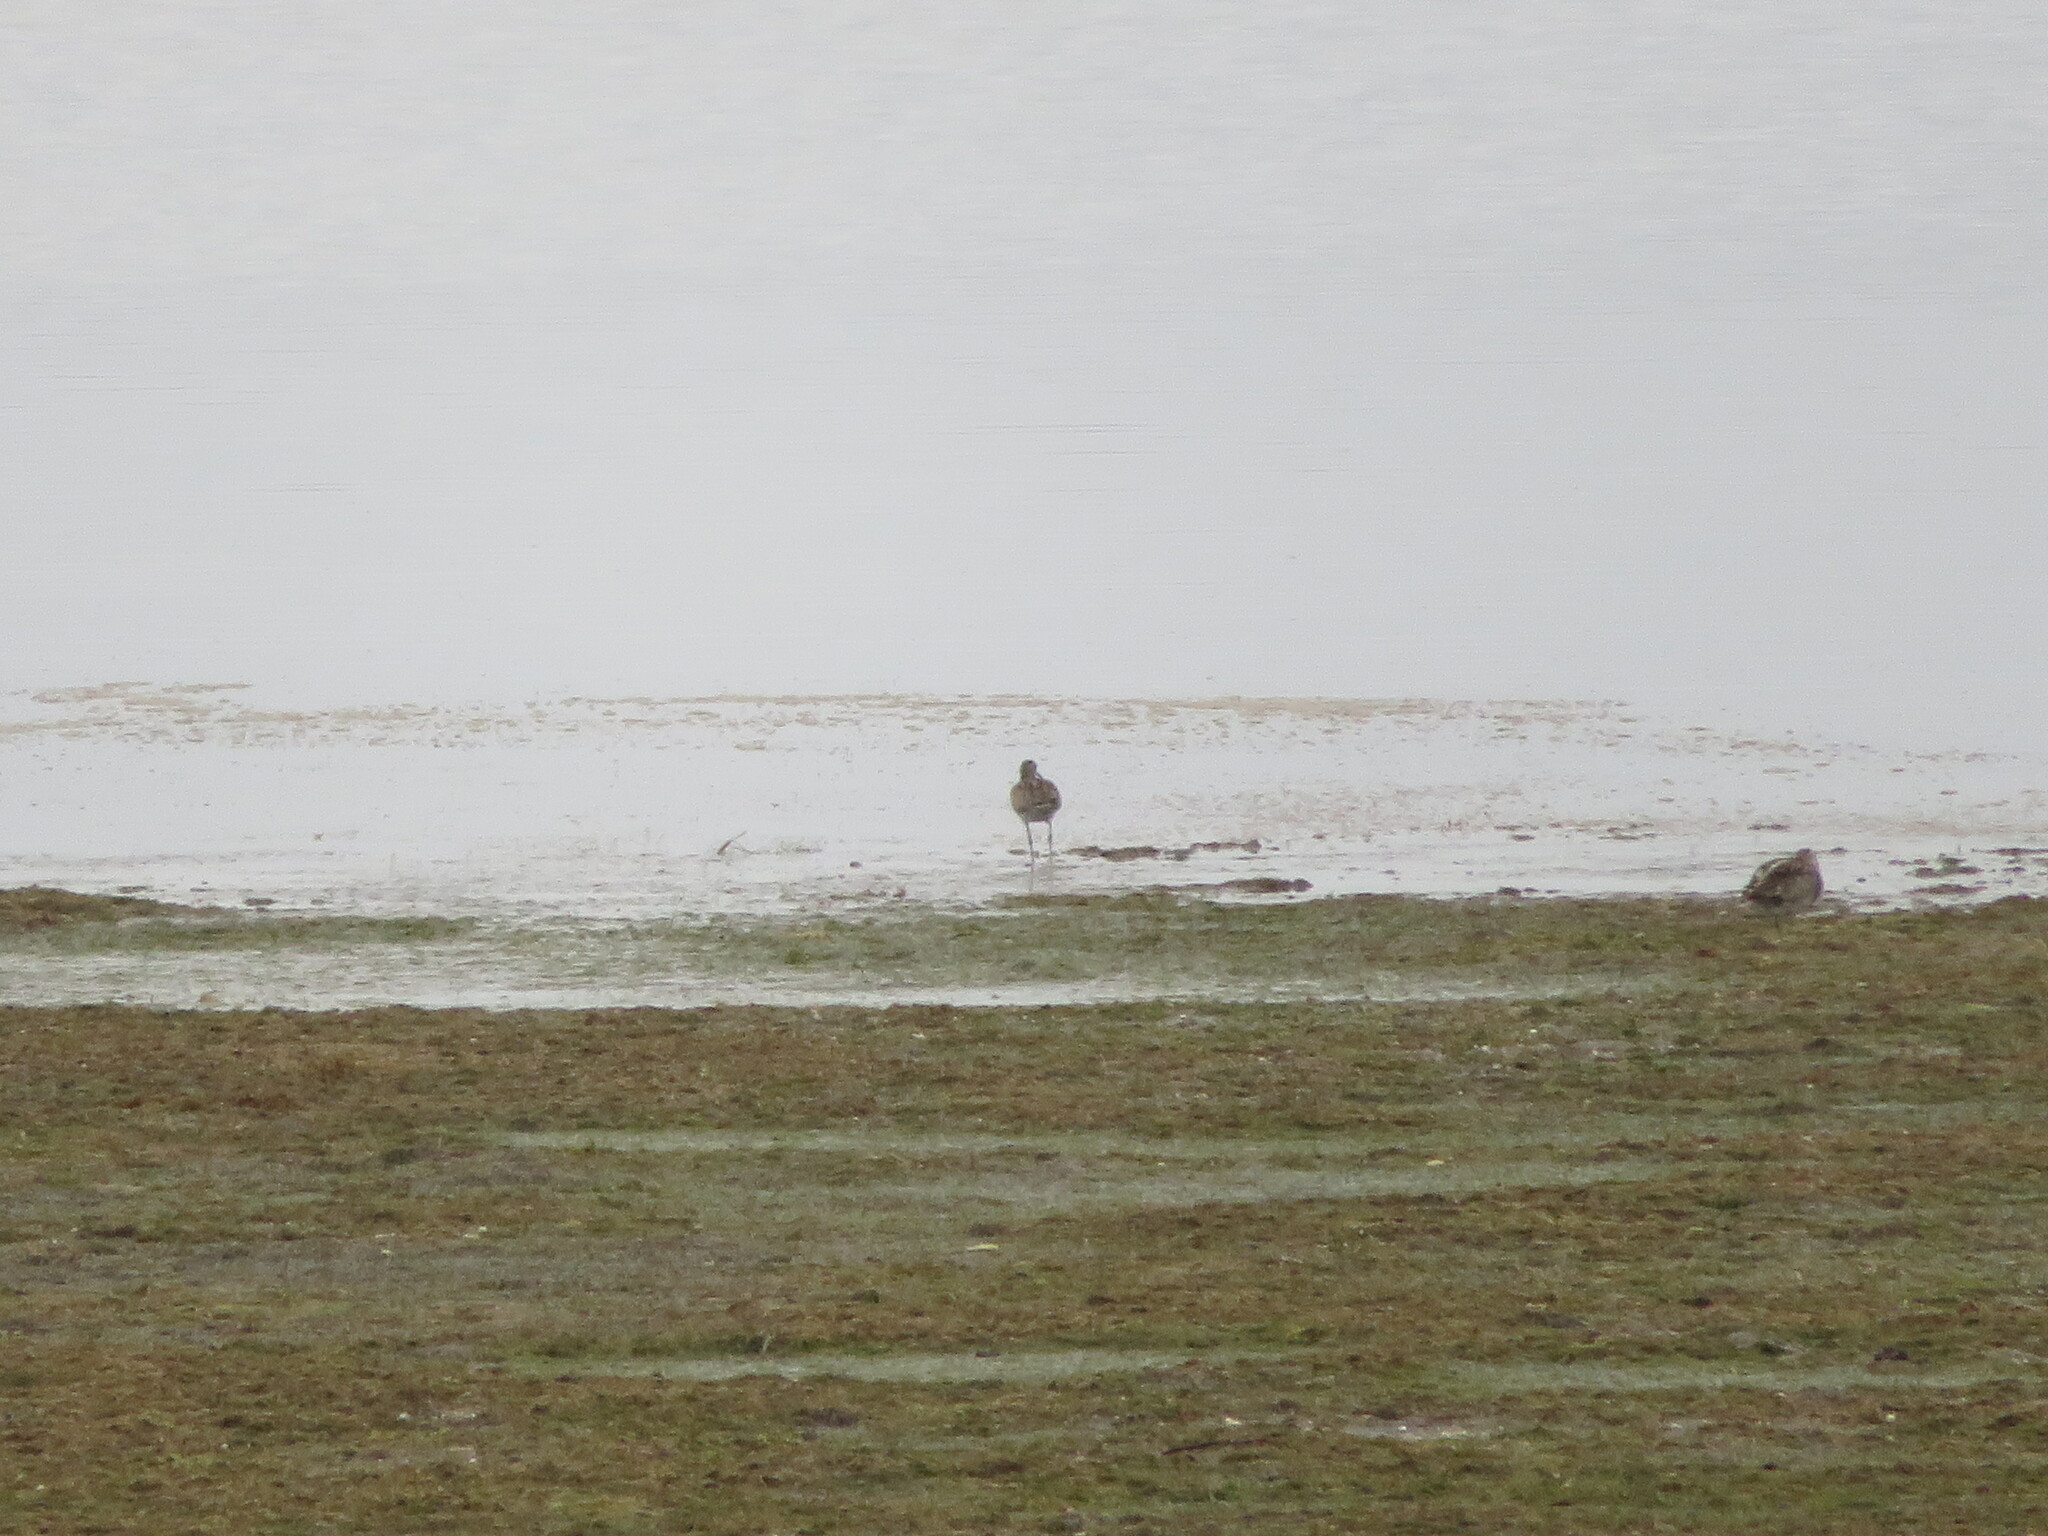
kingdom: Animalia
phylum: Chordata
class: Aves
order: Charadriiformes
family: Scolopacidae
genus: Numenius
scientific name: Numenius phaeopus
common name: Whimbrel
